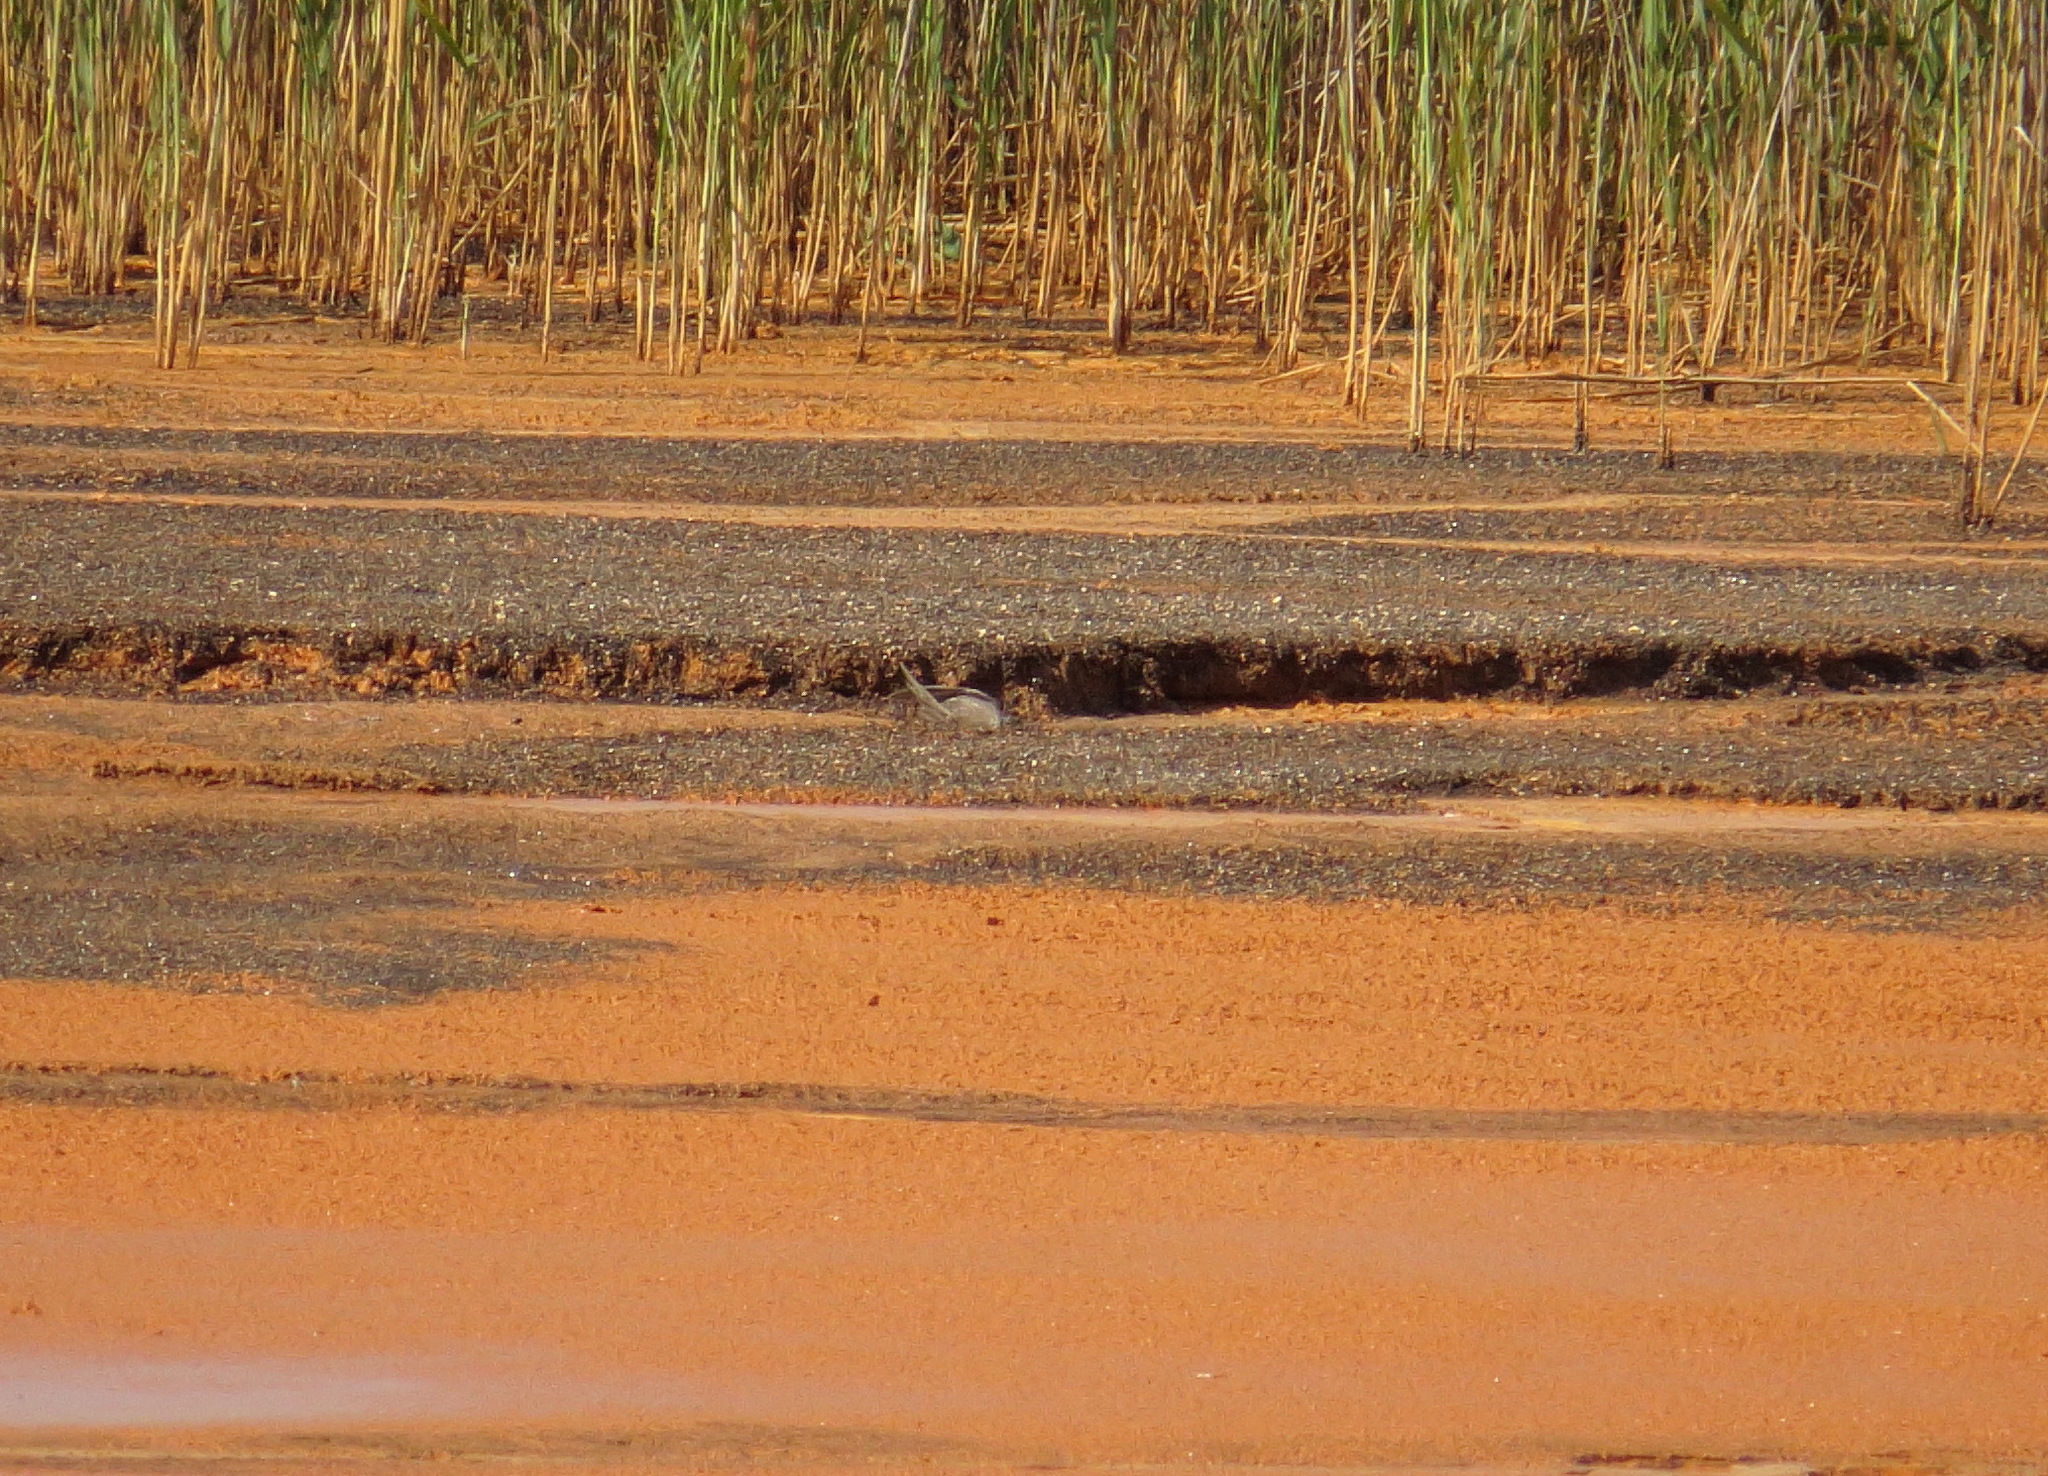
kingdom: Animalia
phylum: Chordata
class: Aves
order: Apodiformes
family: Apodidae
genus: Apus
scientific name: Apus apus
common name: Common swift
